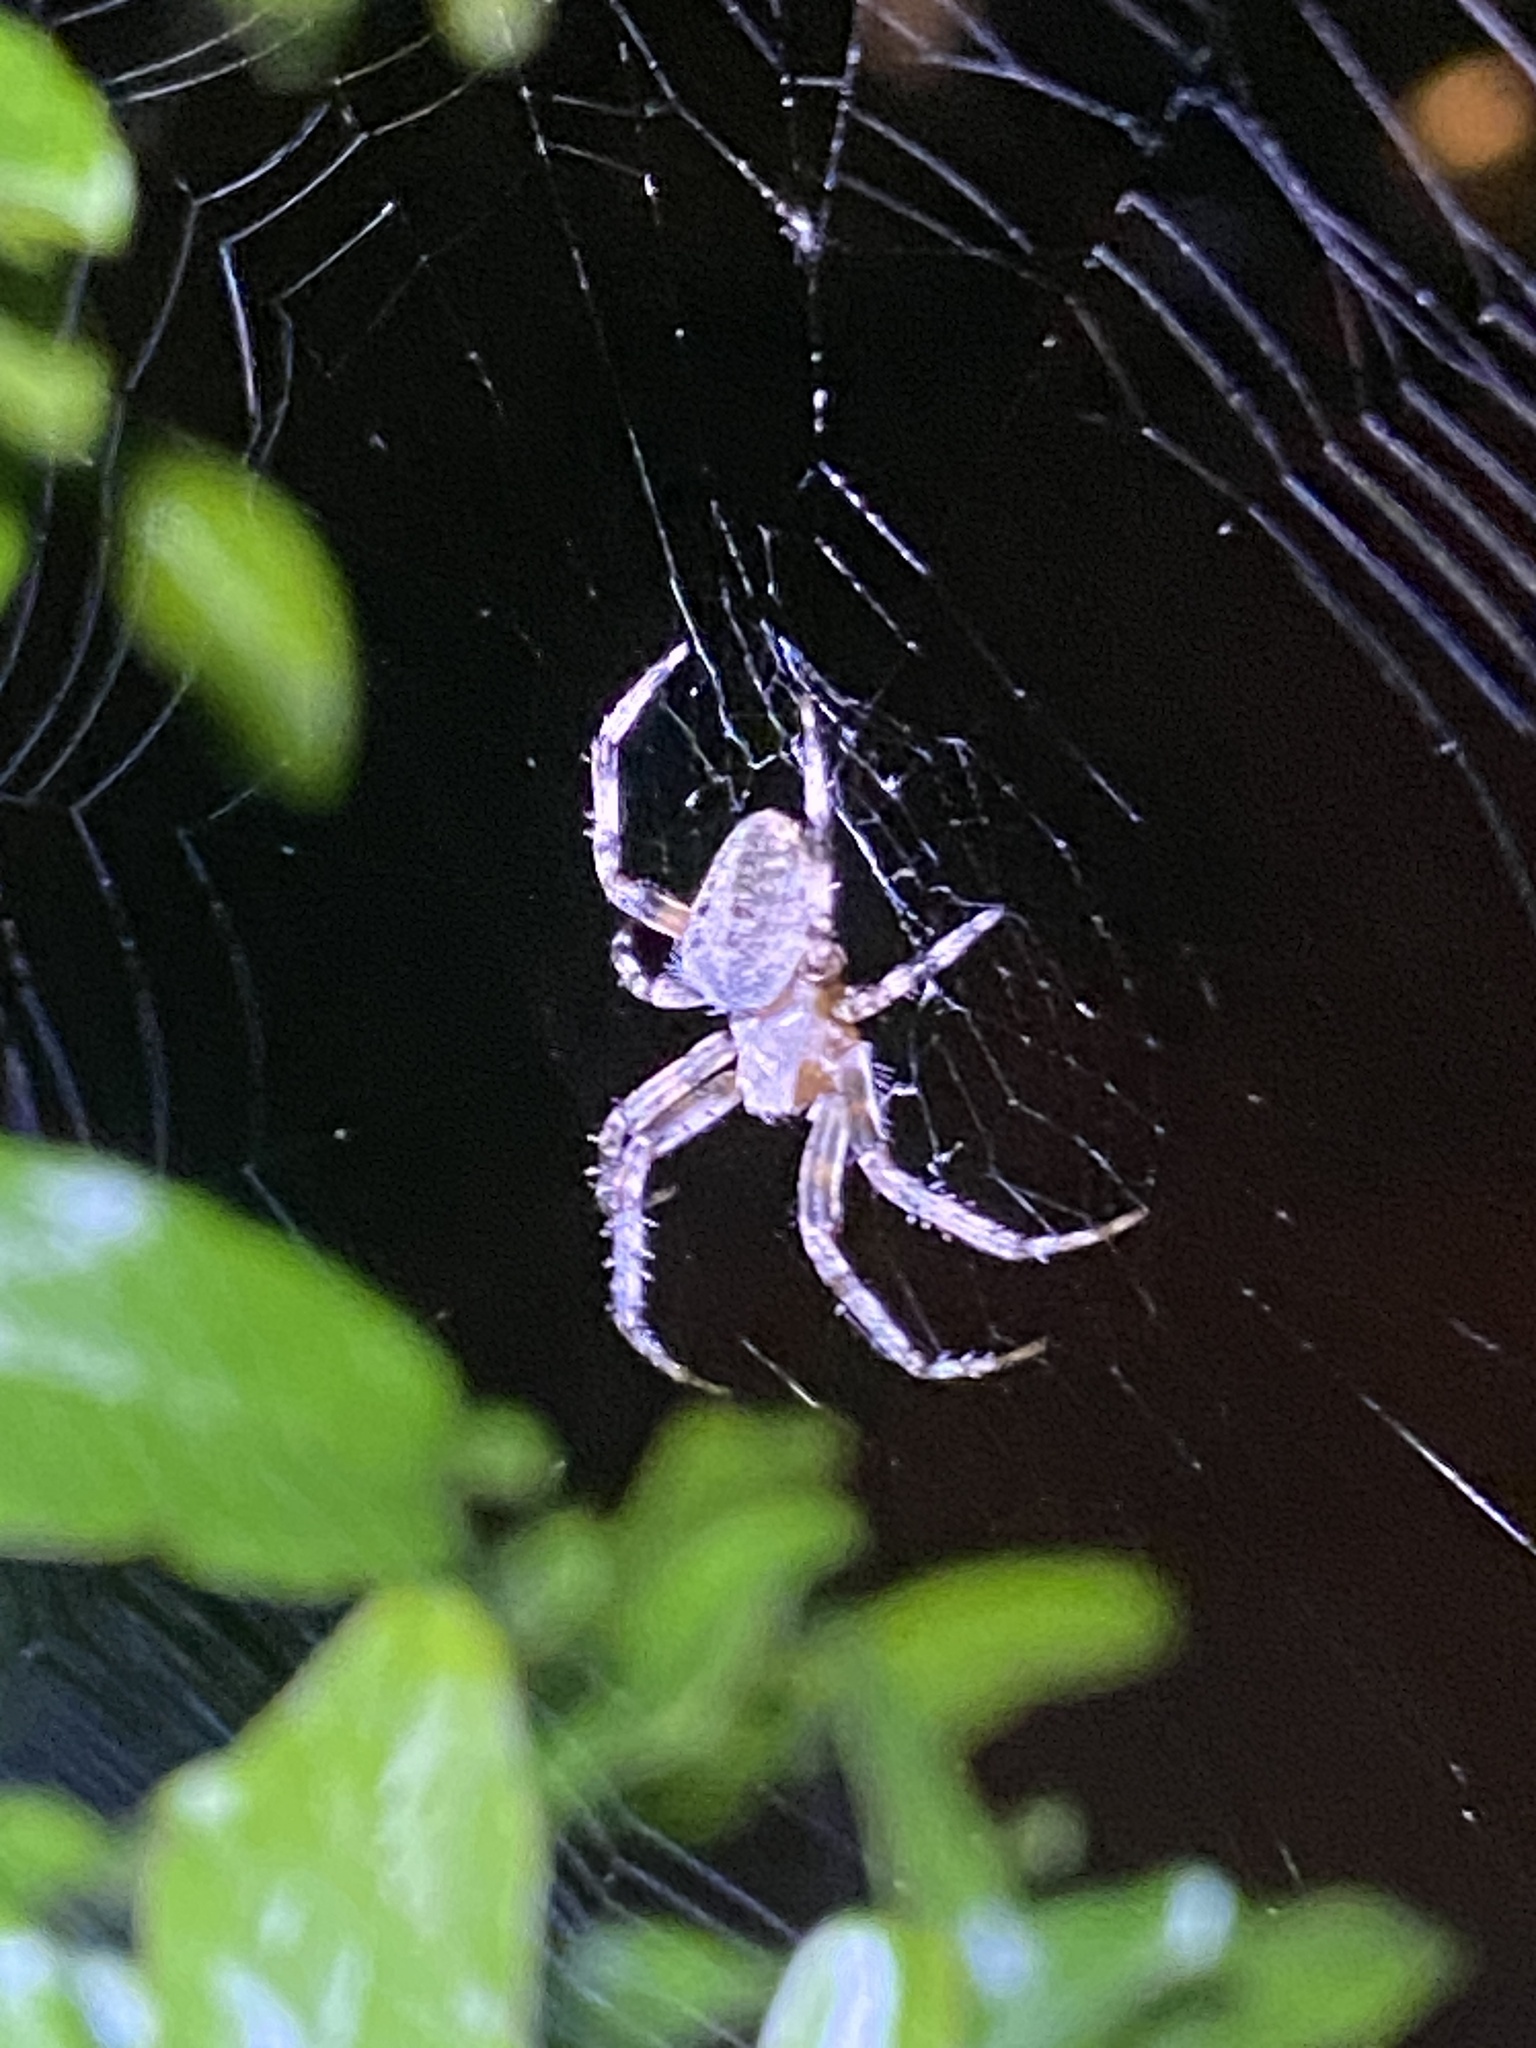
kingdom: Animalia
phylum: Arthropoda
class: Arachnida
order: Araneae
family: Araneidae
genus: Neoscona
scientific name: Neoscona crucifera
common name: Spotted orbweaver
